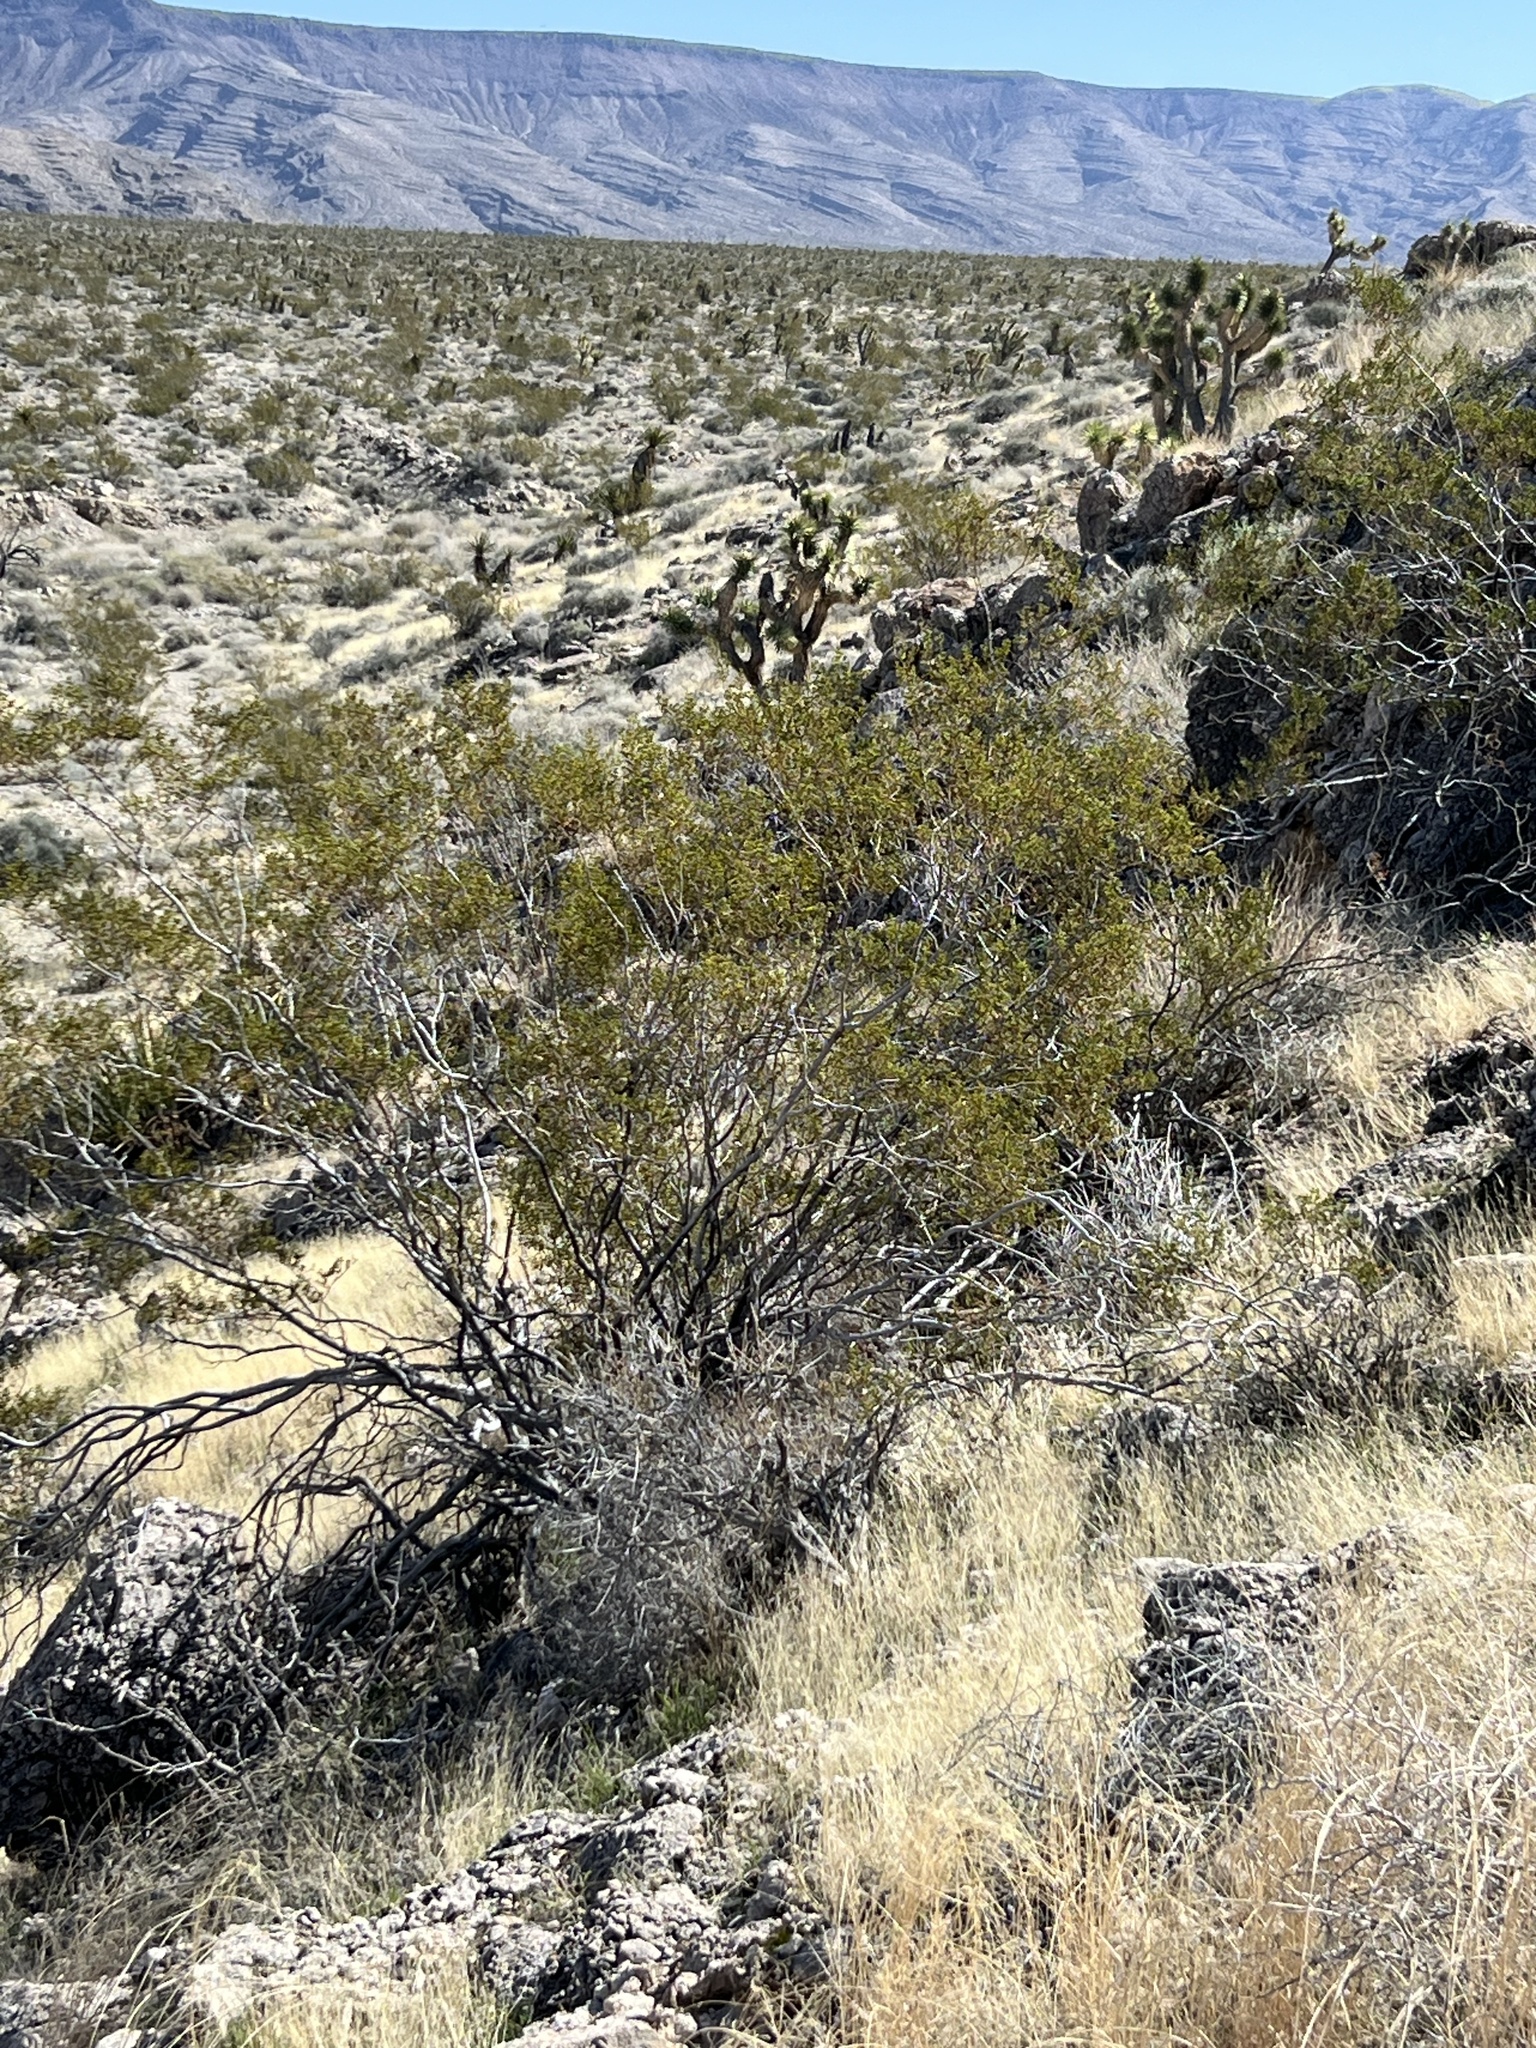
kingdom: Plantae
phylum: Tracheophyta
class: Magnoliopsida
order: Zygophyllales
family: Zygophyllaceae
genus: Larrea
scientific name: Larrea tridentata
